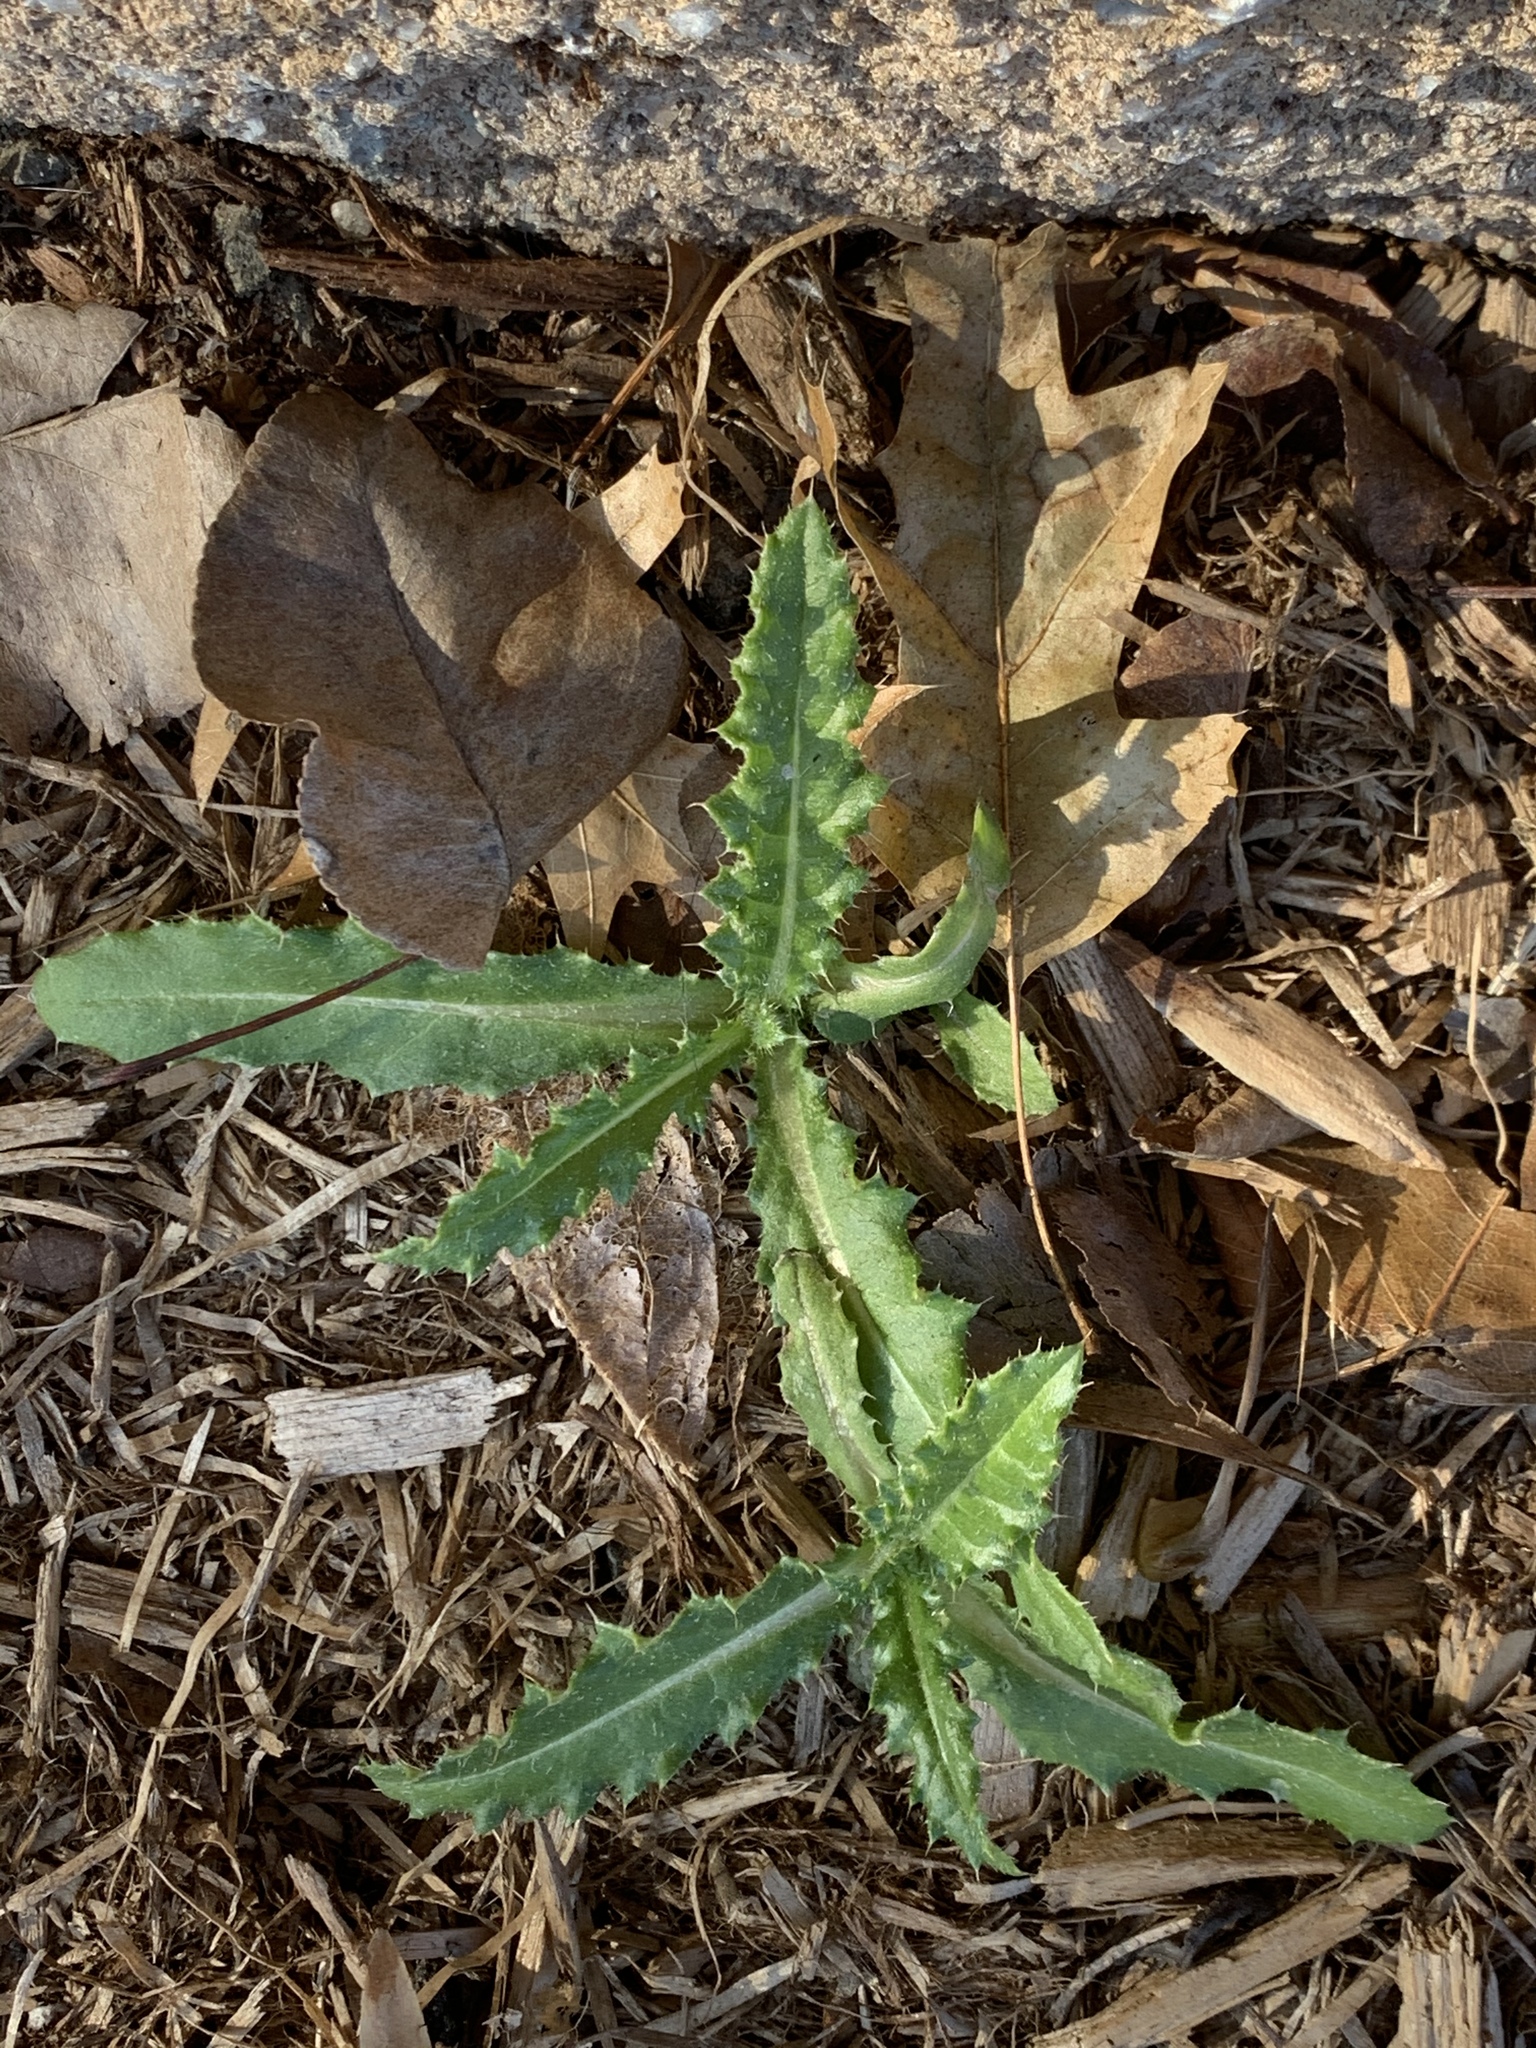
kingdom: Plantae
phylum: Tracheophyta
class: Magnoliopsida
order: Asterales
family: Asteraceae
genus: Cirsium
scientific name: Cirsium arvense
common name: Creeping thistle
